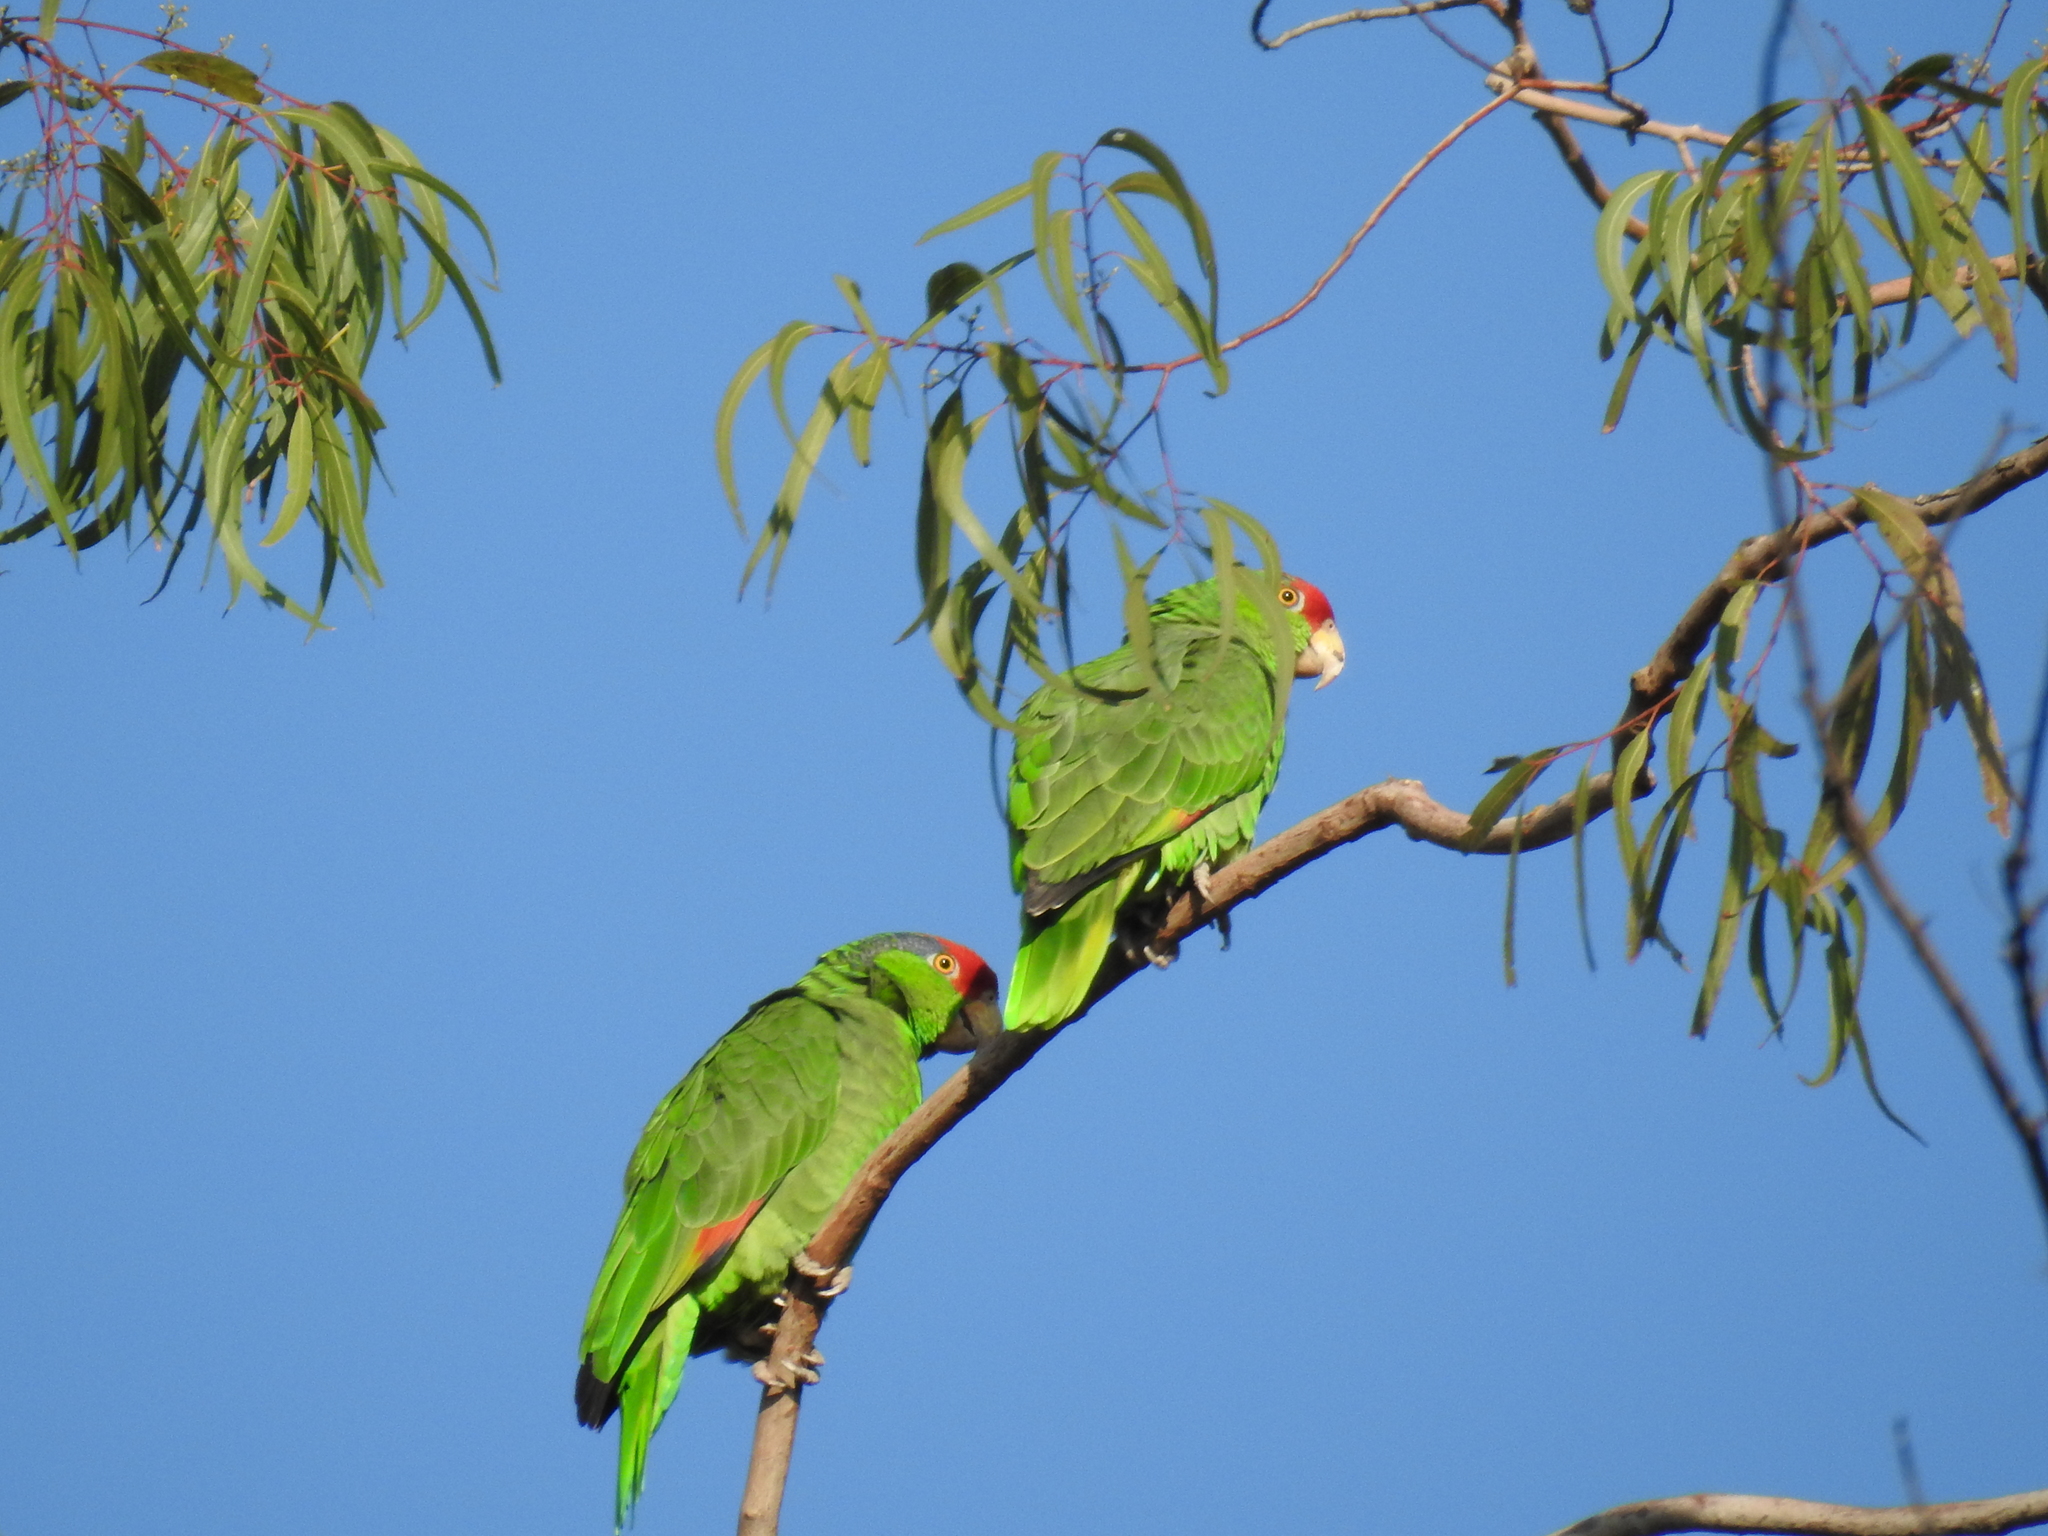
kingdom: Animalia
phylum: Chordata
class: Aves
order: Psittaciformes
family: Psittacidae
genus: Amazona
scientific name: Amazona viridigenalis
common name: Red-crowned amazon
